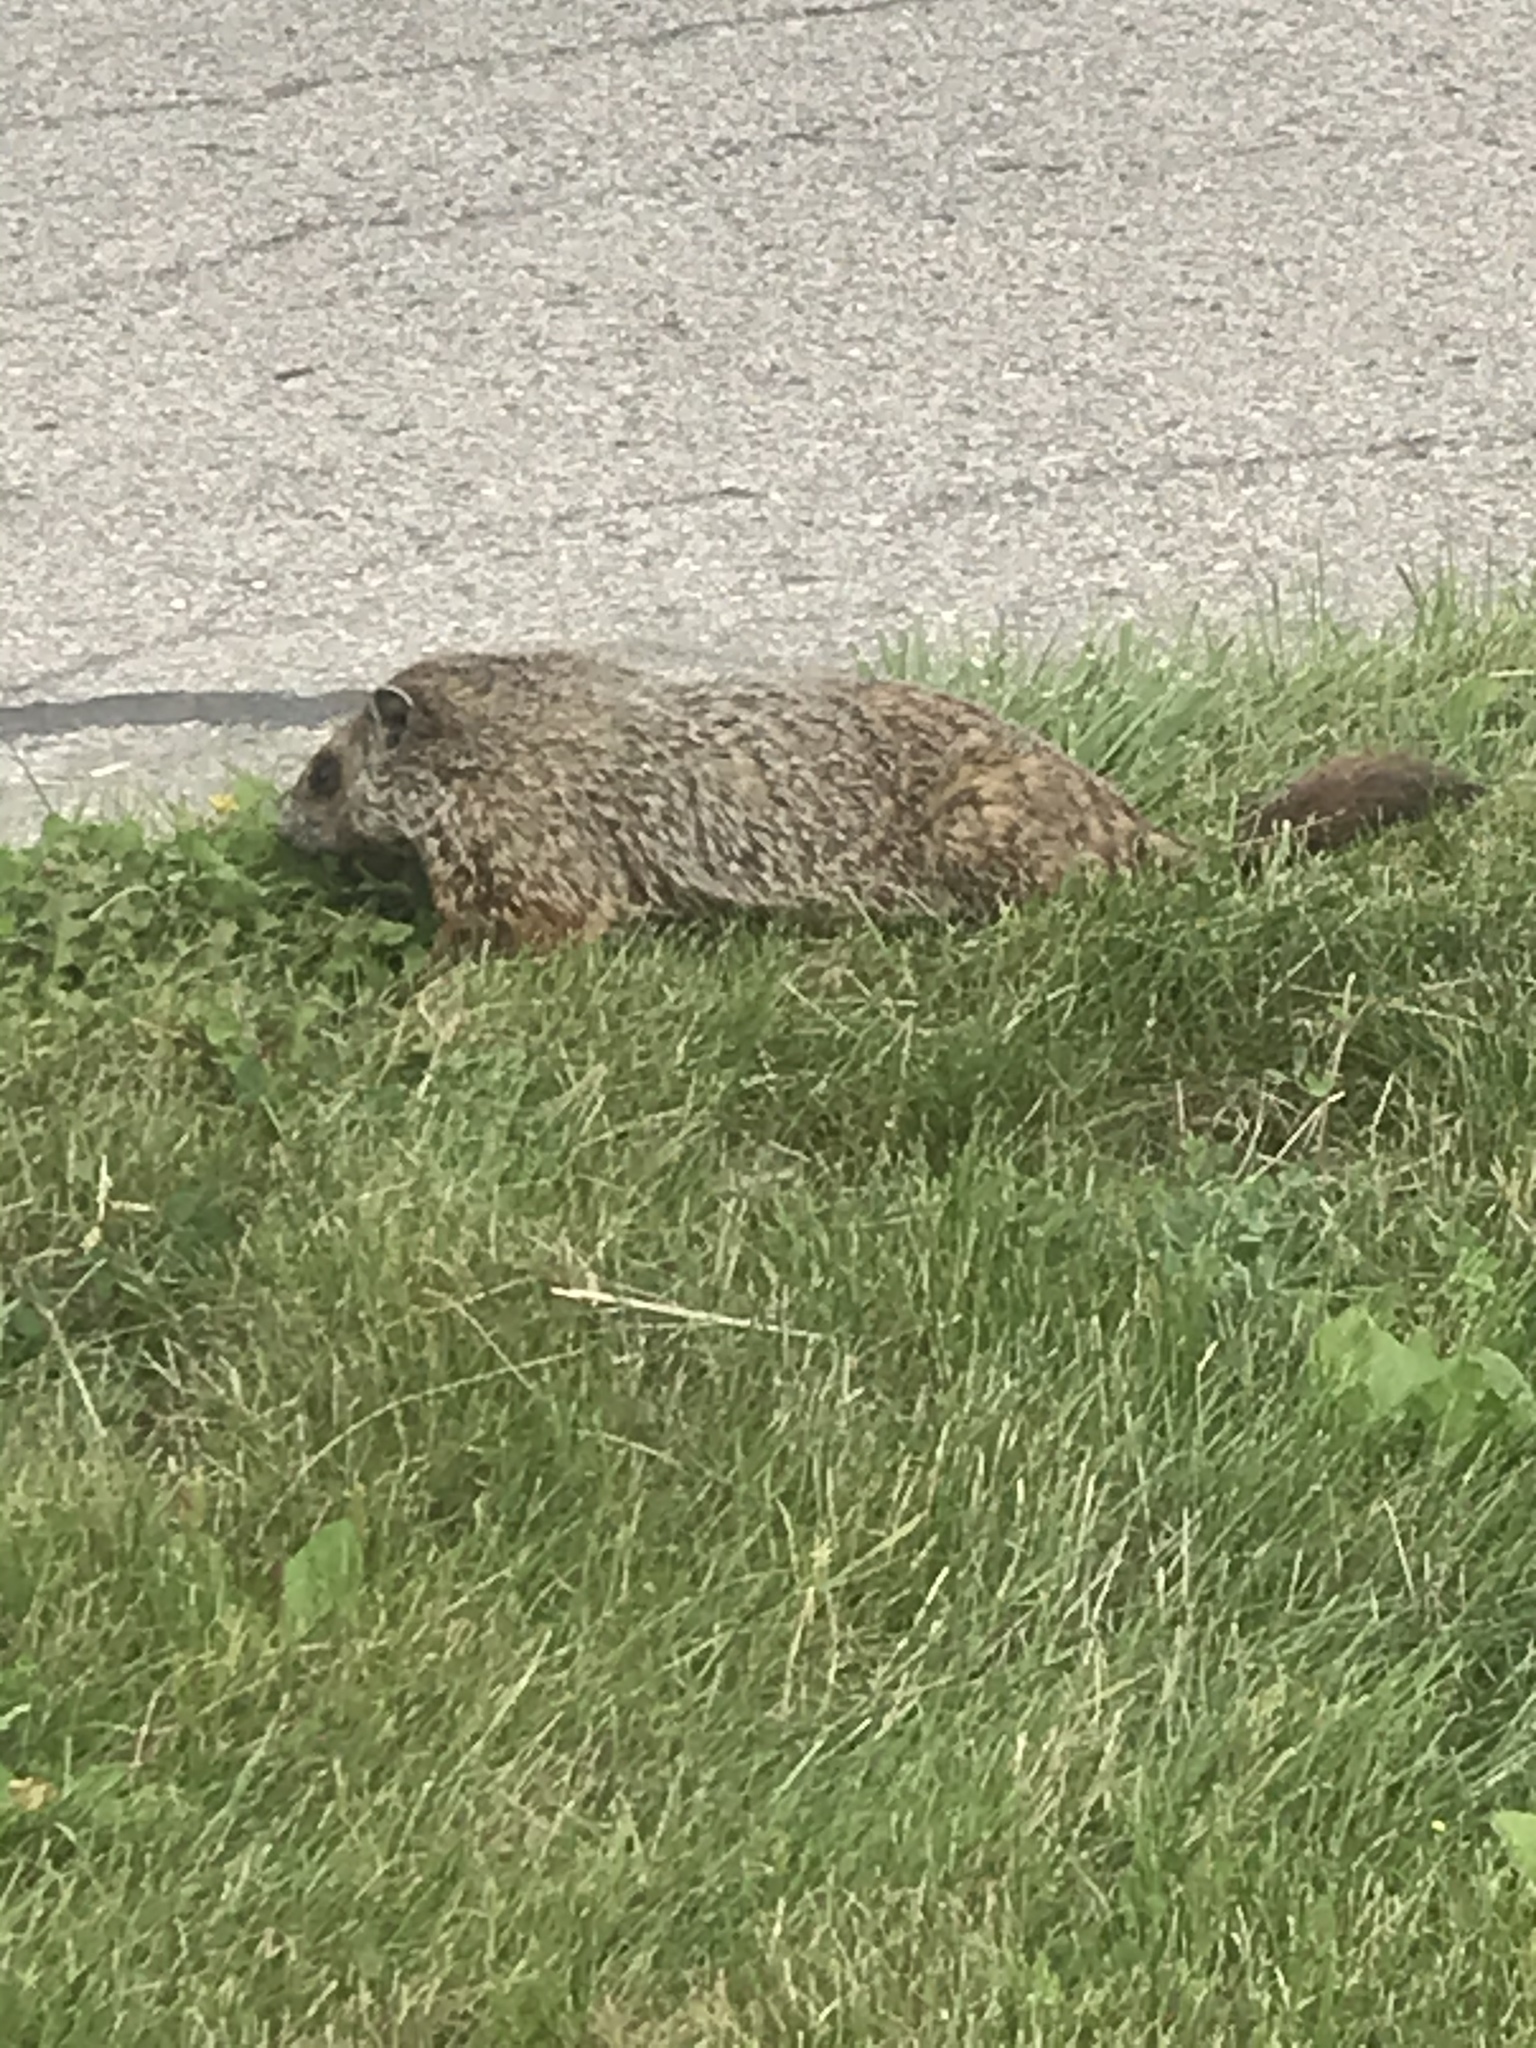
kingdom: Animalia
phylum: Chordata
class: Mammalia
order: Rodentia
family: Sciuridae
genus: Marmota
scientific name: Marmota monax
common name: Groundhog
